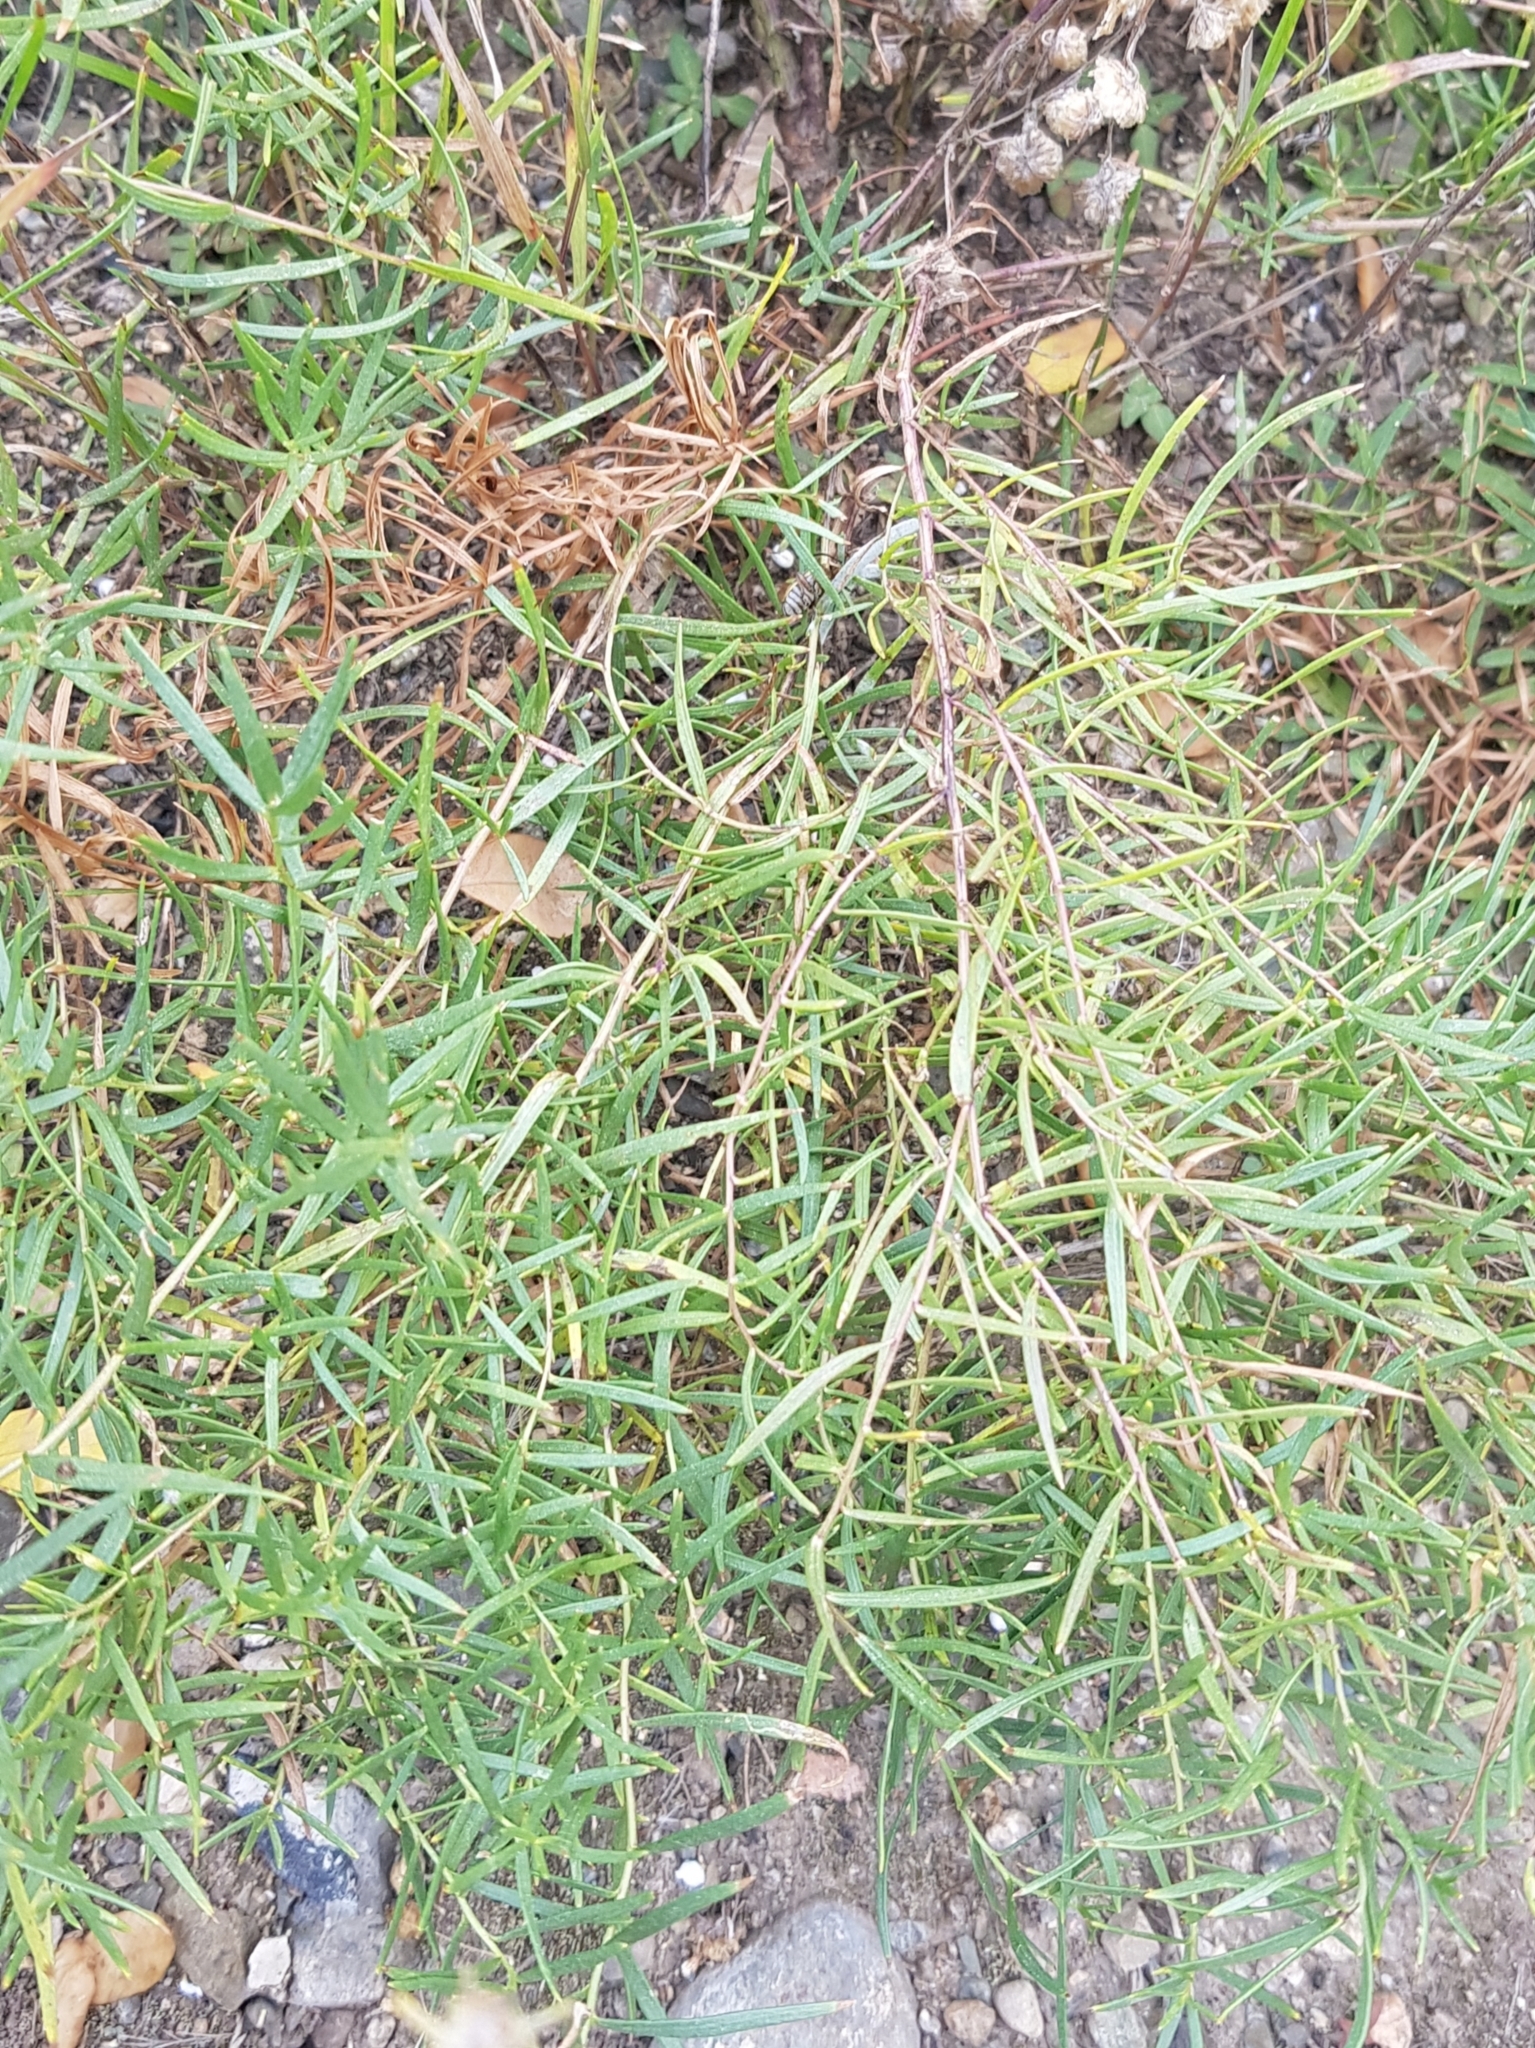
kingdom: Plantae
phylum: Tracheophyta
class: Magnoliopsida
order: Asterales
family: Asteraceae
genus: Artemisia
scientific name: Artemisia dracunculus
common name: Tarragon
